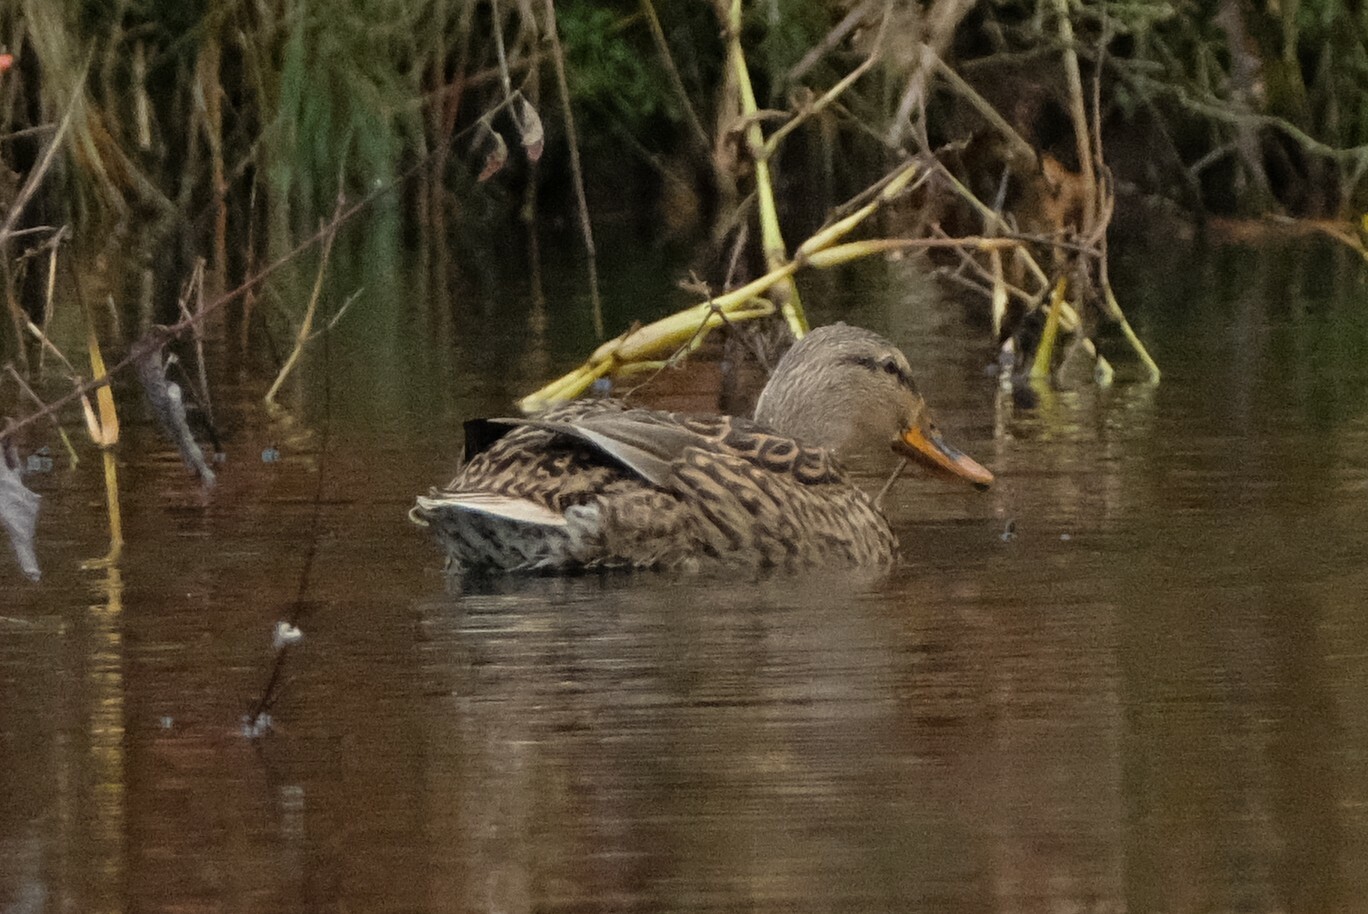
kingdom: Animalia
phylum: Chordata
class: Aves
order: Anseriformes
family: Anatidae
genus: Anas
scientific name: Anas platyrhynchos
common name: Mallard
